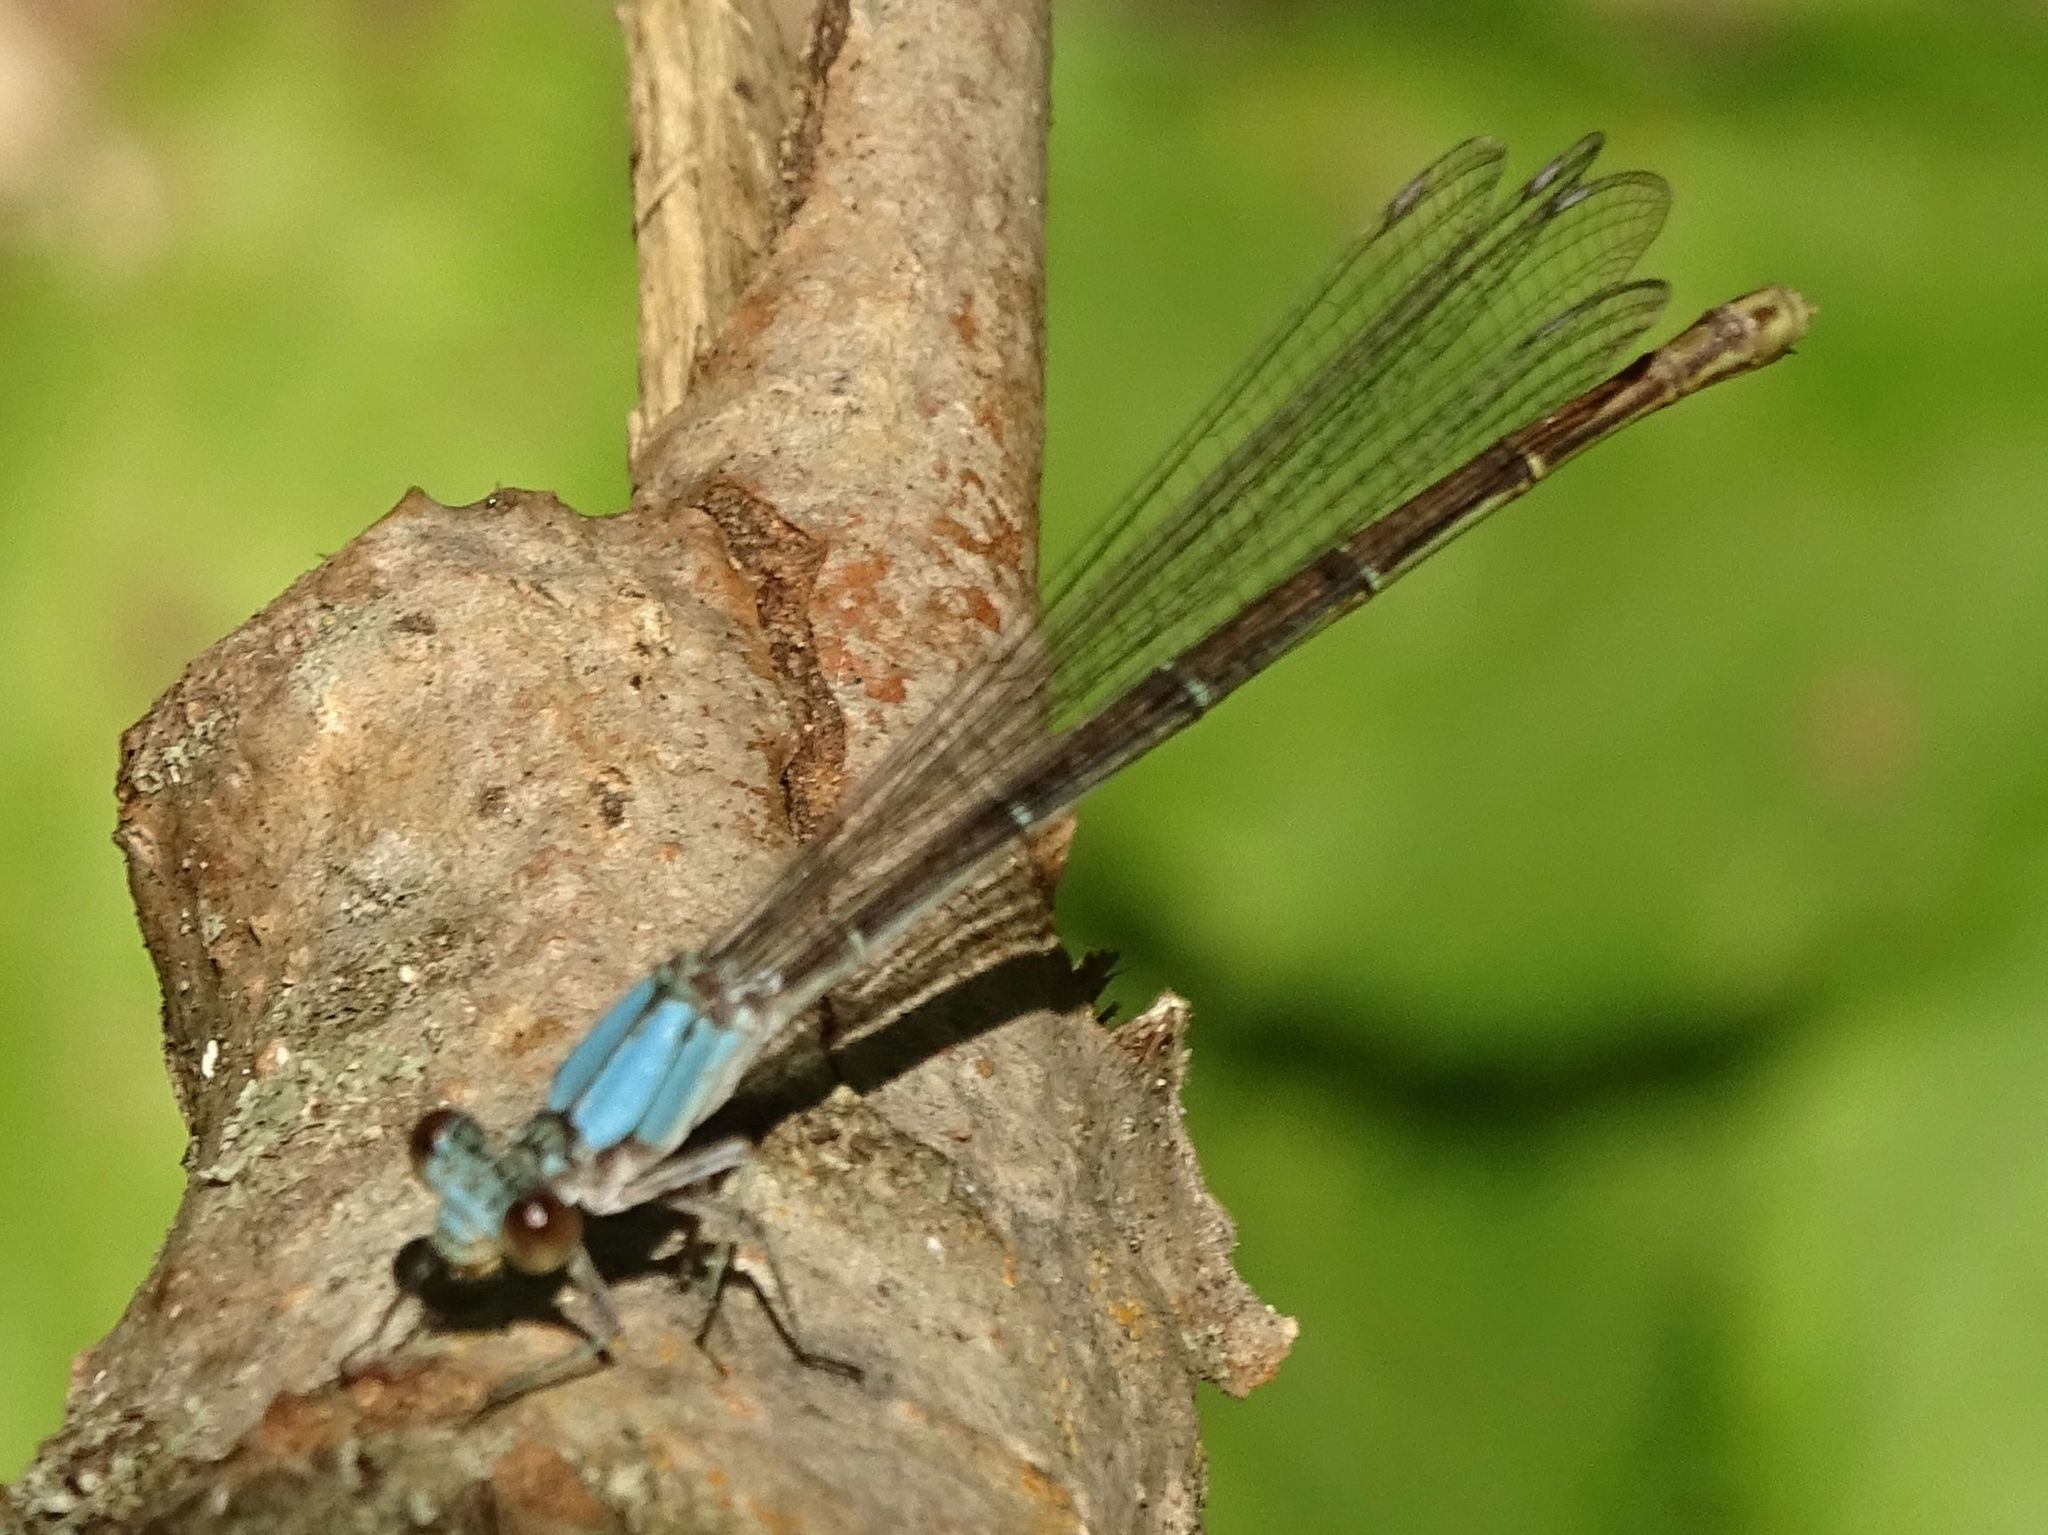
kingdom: Animalia
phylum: Arthropoda
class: Insecta
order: Odonata
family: Coenagrionidae
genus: Argia
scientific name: Argia moesta
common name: Powdered dancer
